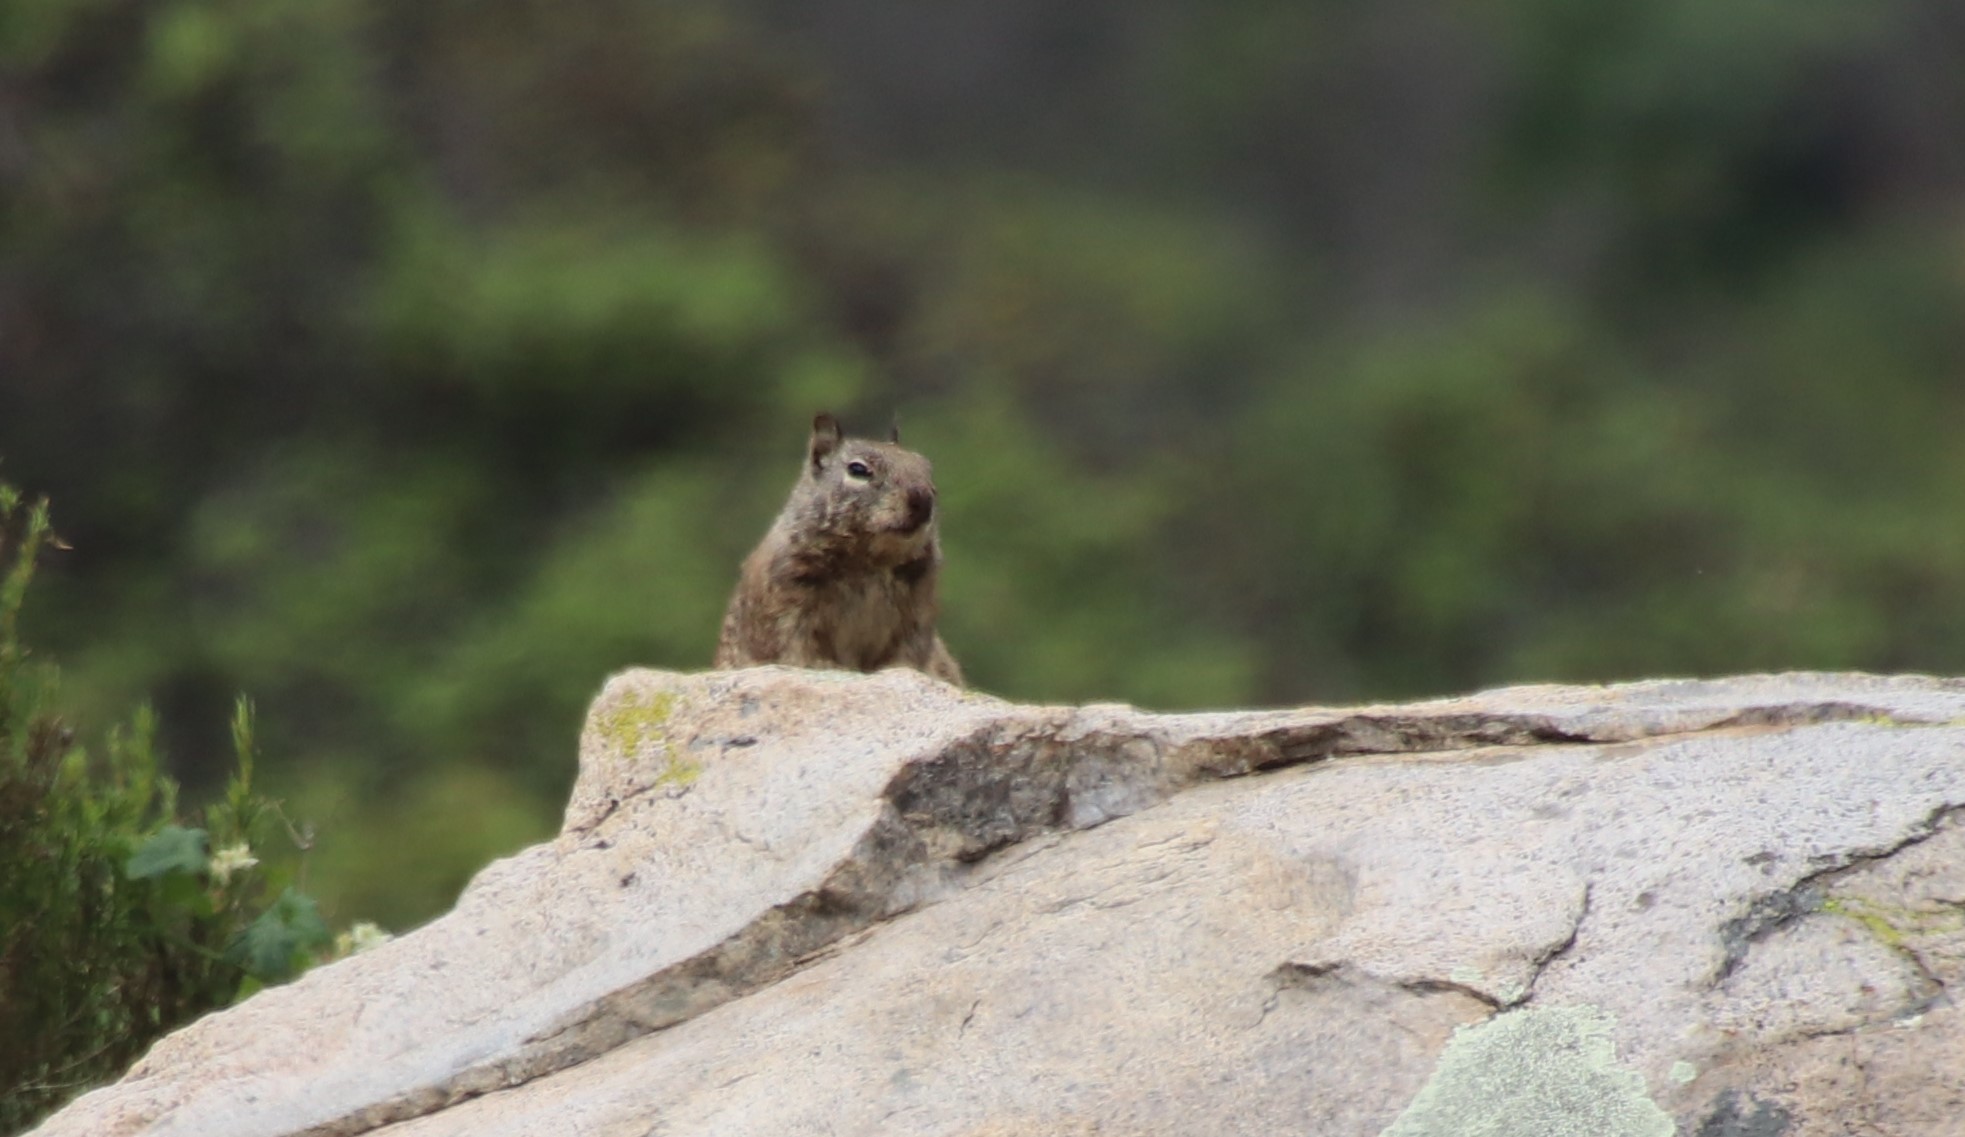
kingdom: Animalia
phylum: Chordata
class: Mammalia
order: Rodentia
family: Sciuridae
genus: Otospermophilus
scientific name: Otospermophilus beecheyi
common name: California ground squirrel
